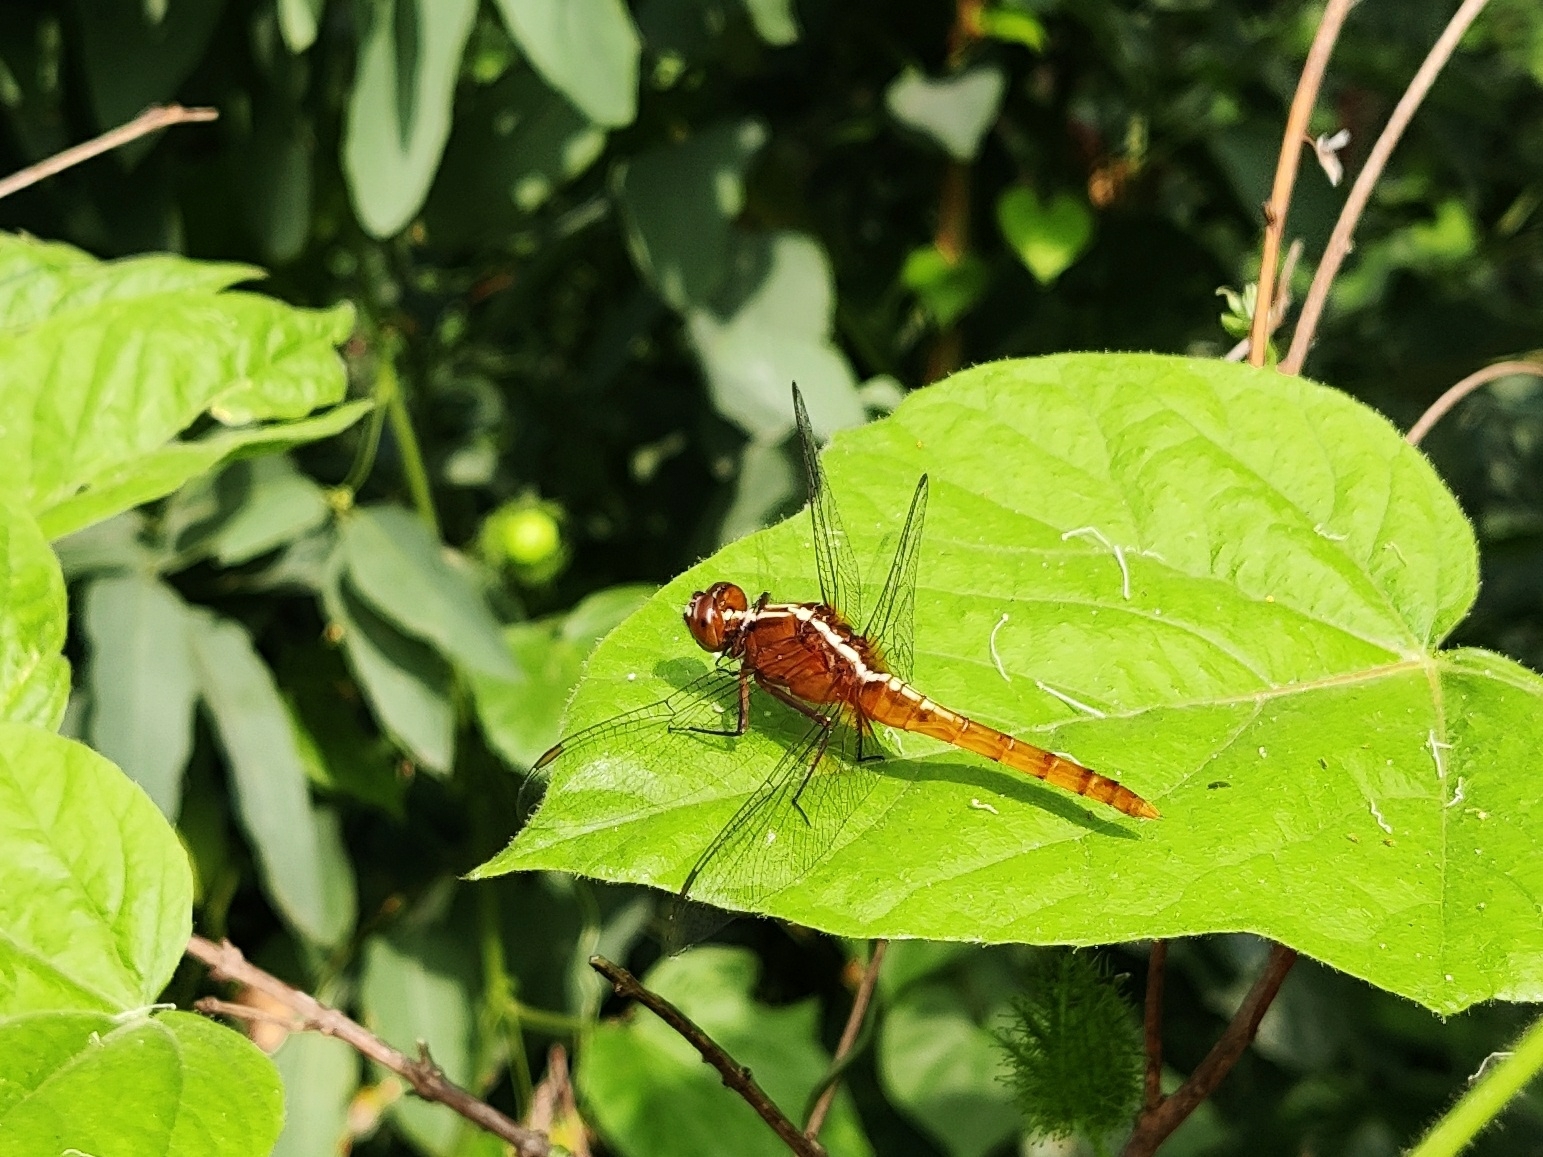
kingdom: Animalia
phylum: Arthropoda
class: Insecta
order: Odonata
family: Libellulidae
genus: Rhodothemis
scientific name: Rhodothemis rufa
